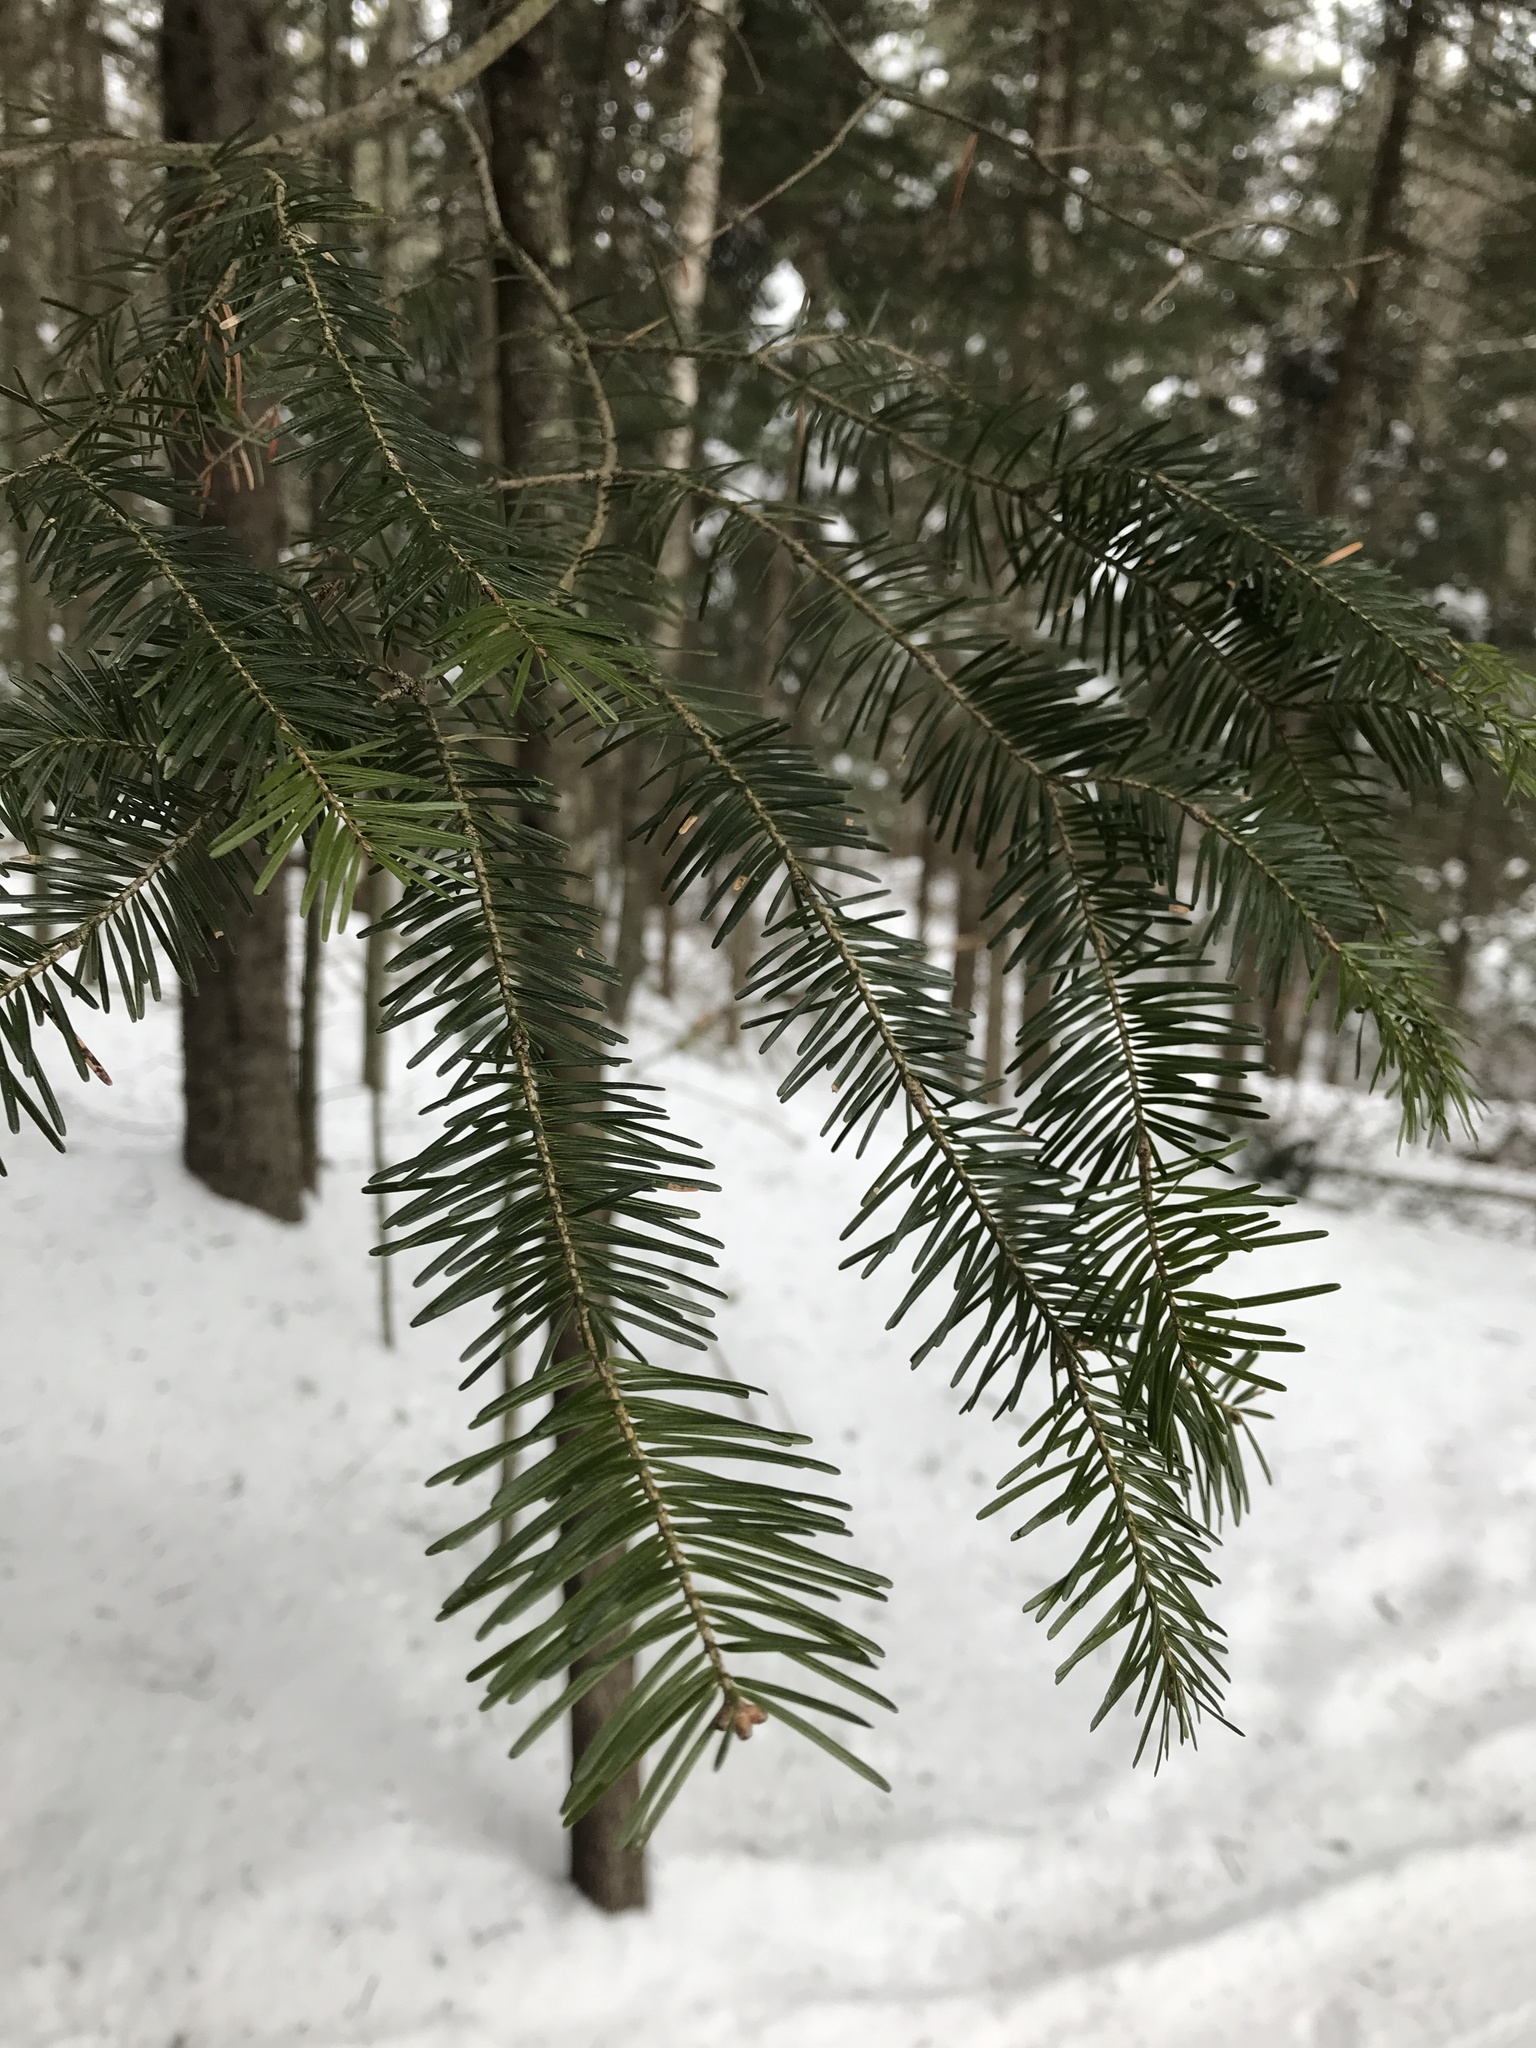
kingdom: Plantae
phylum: Tracheophyta
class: Pinopsida
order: Pinales
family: Pinaceae
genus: Abies
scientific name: Abies balsamea
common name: Balsam fir
